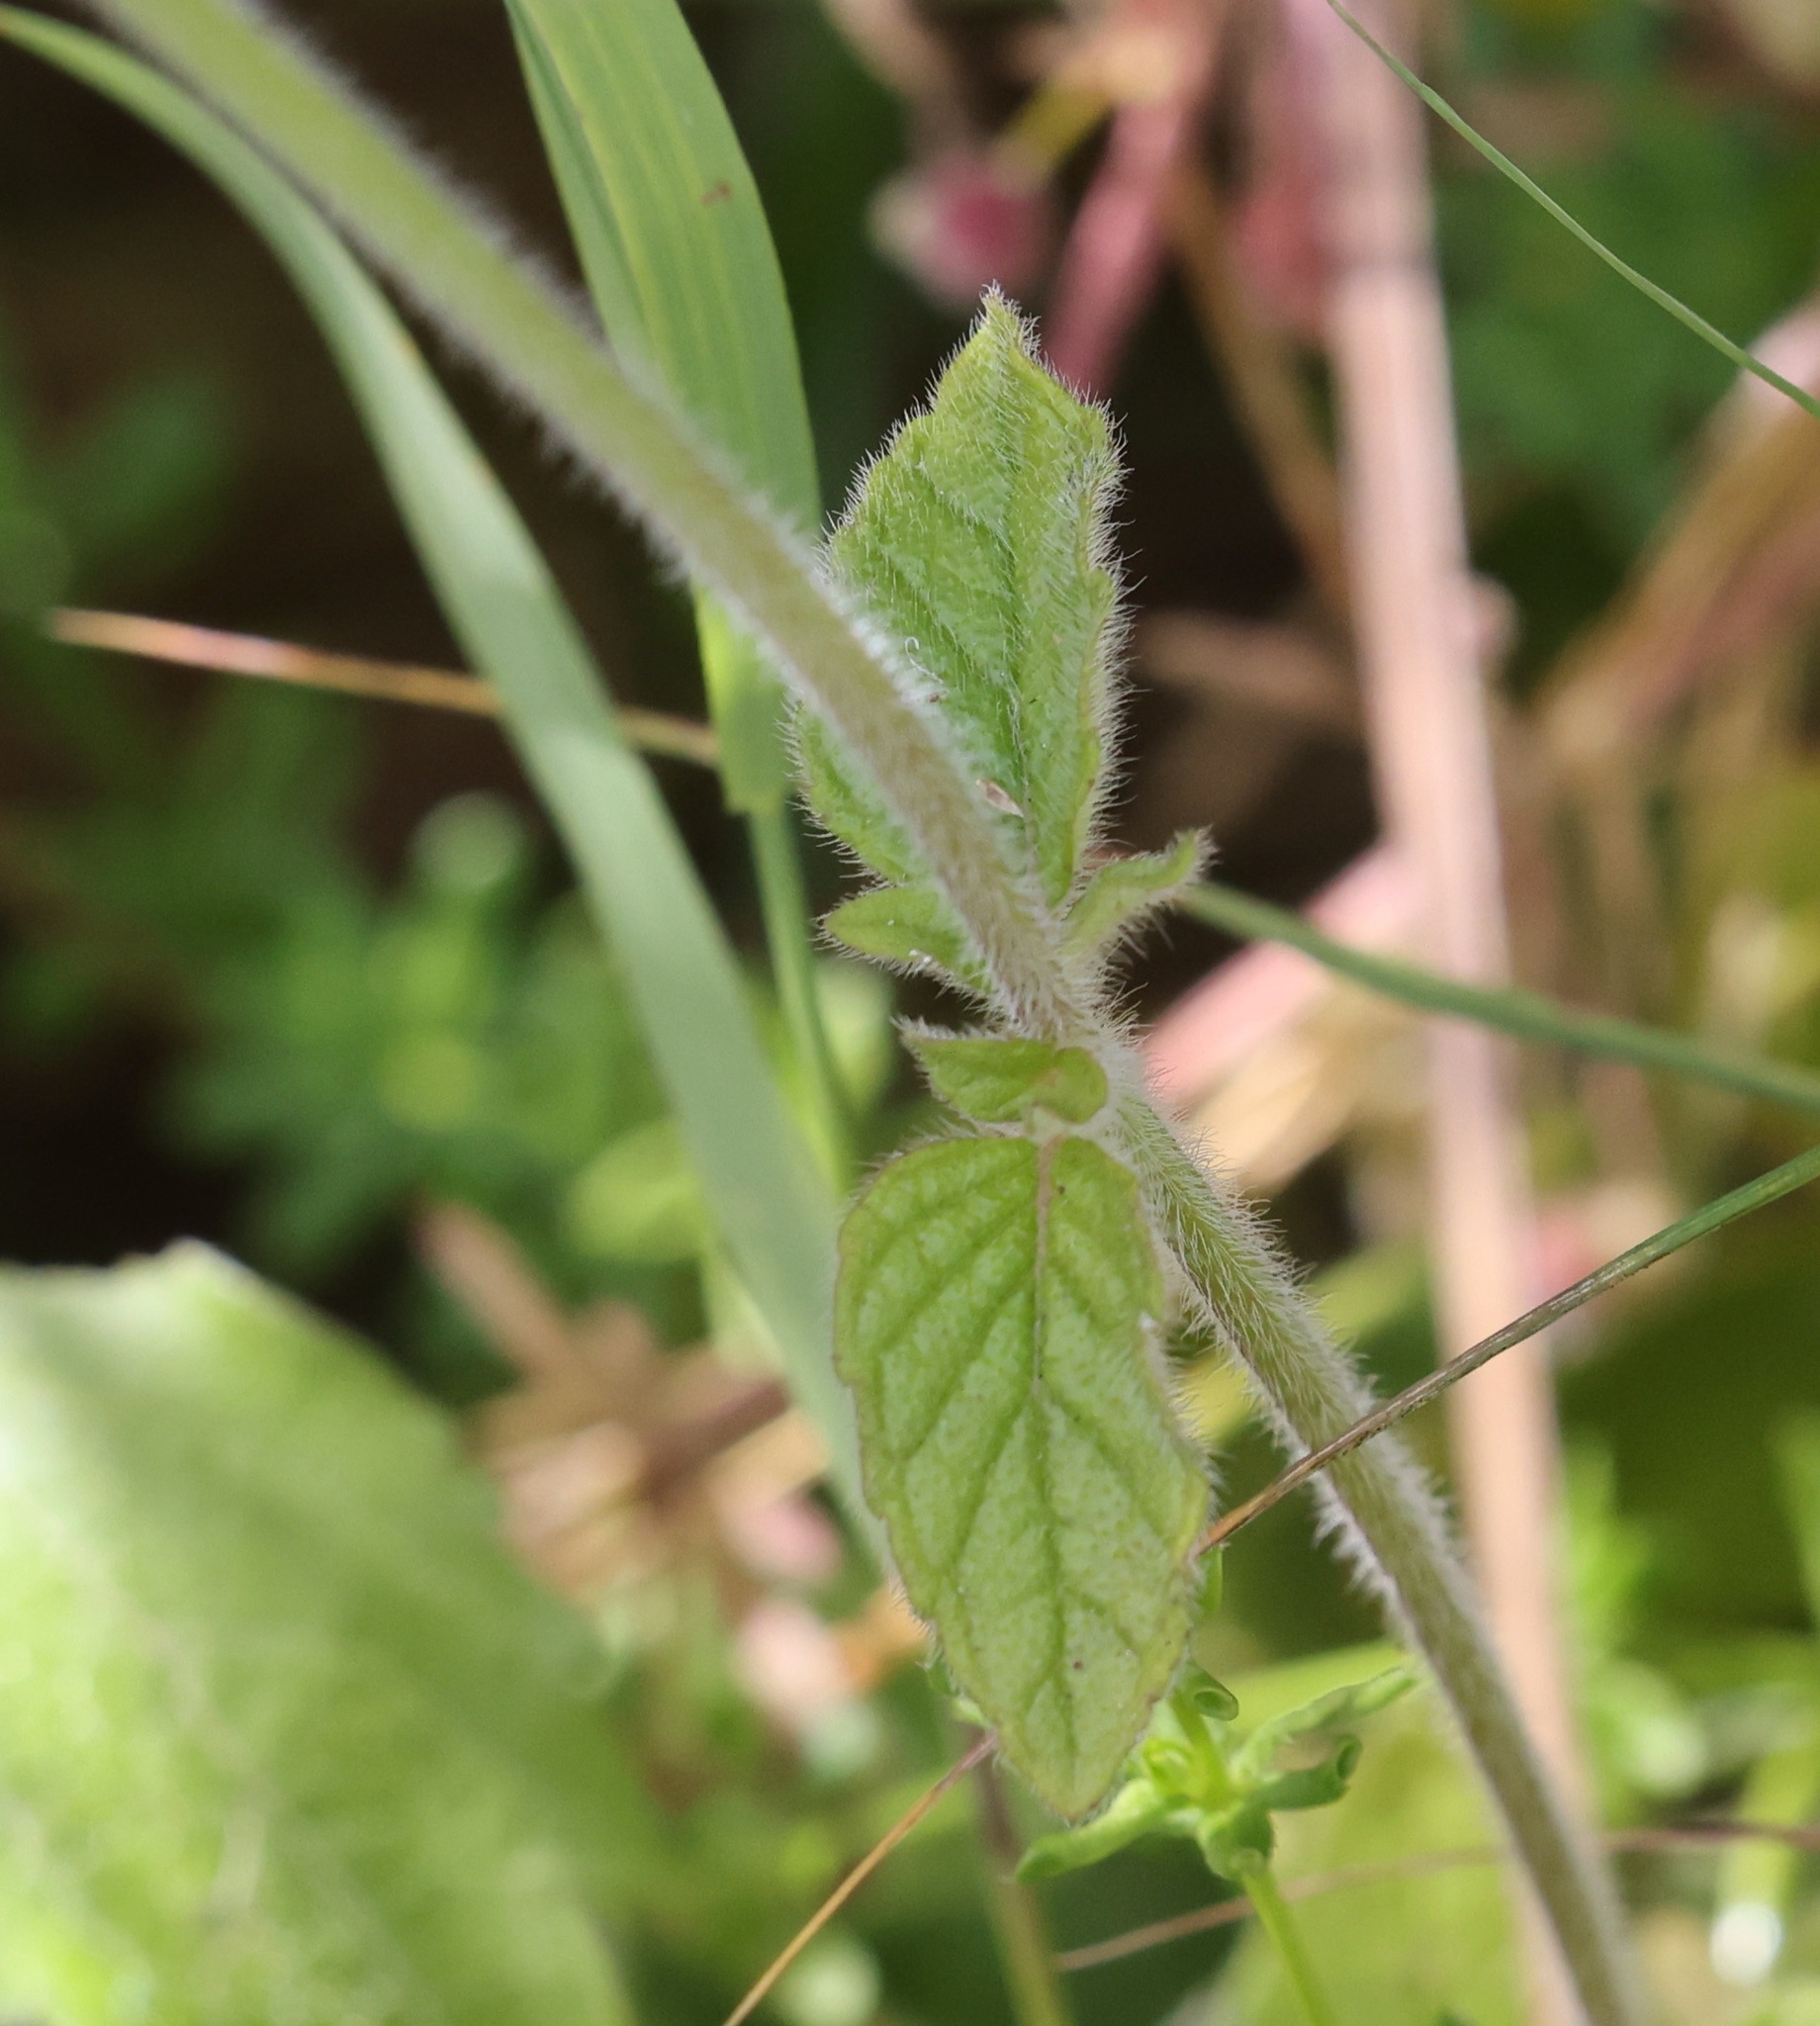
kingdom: Plantae
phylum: Tracheophyta
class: Magnoliopsida
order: Lamiales
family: Lamiaceae
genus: Clinopodium
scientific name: Clinopodium vulgare
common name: Wild basil
